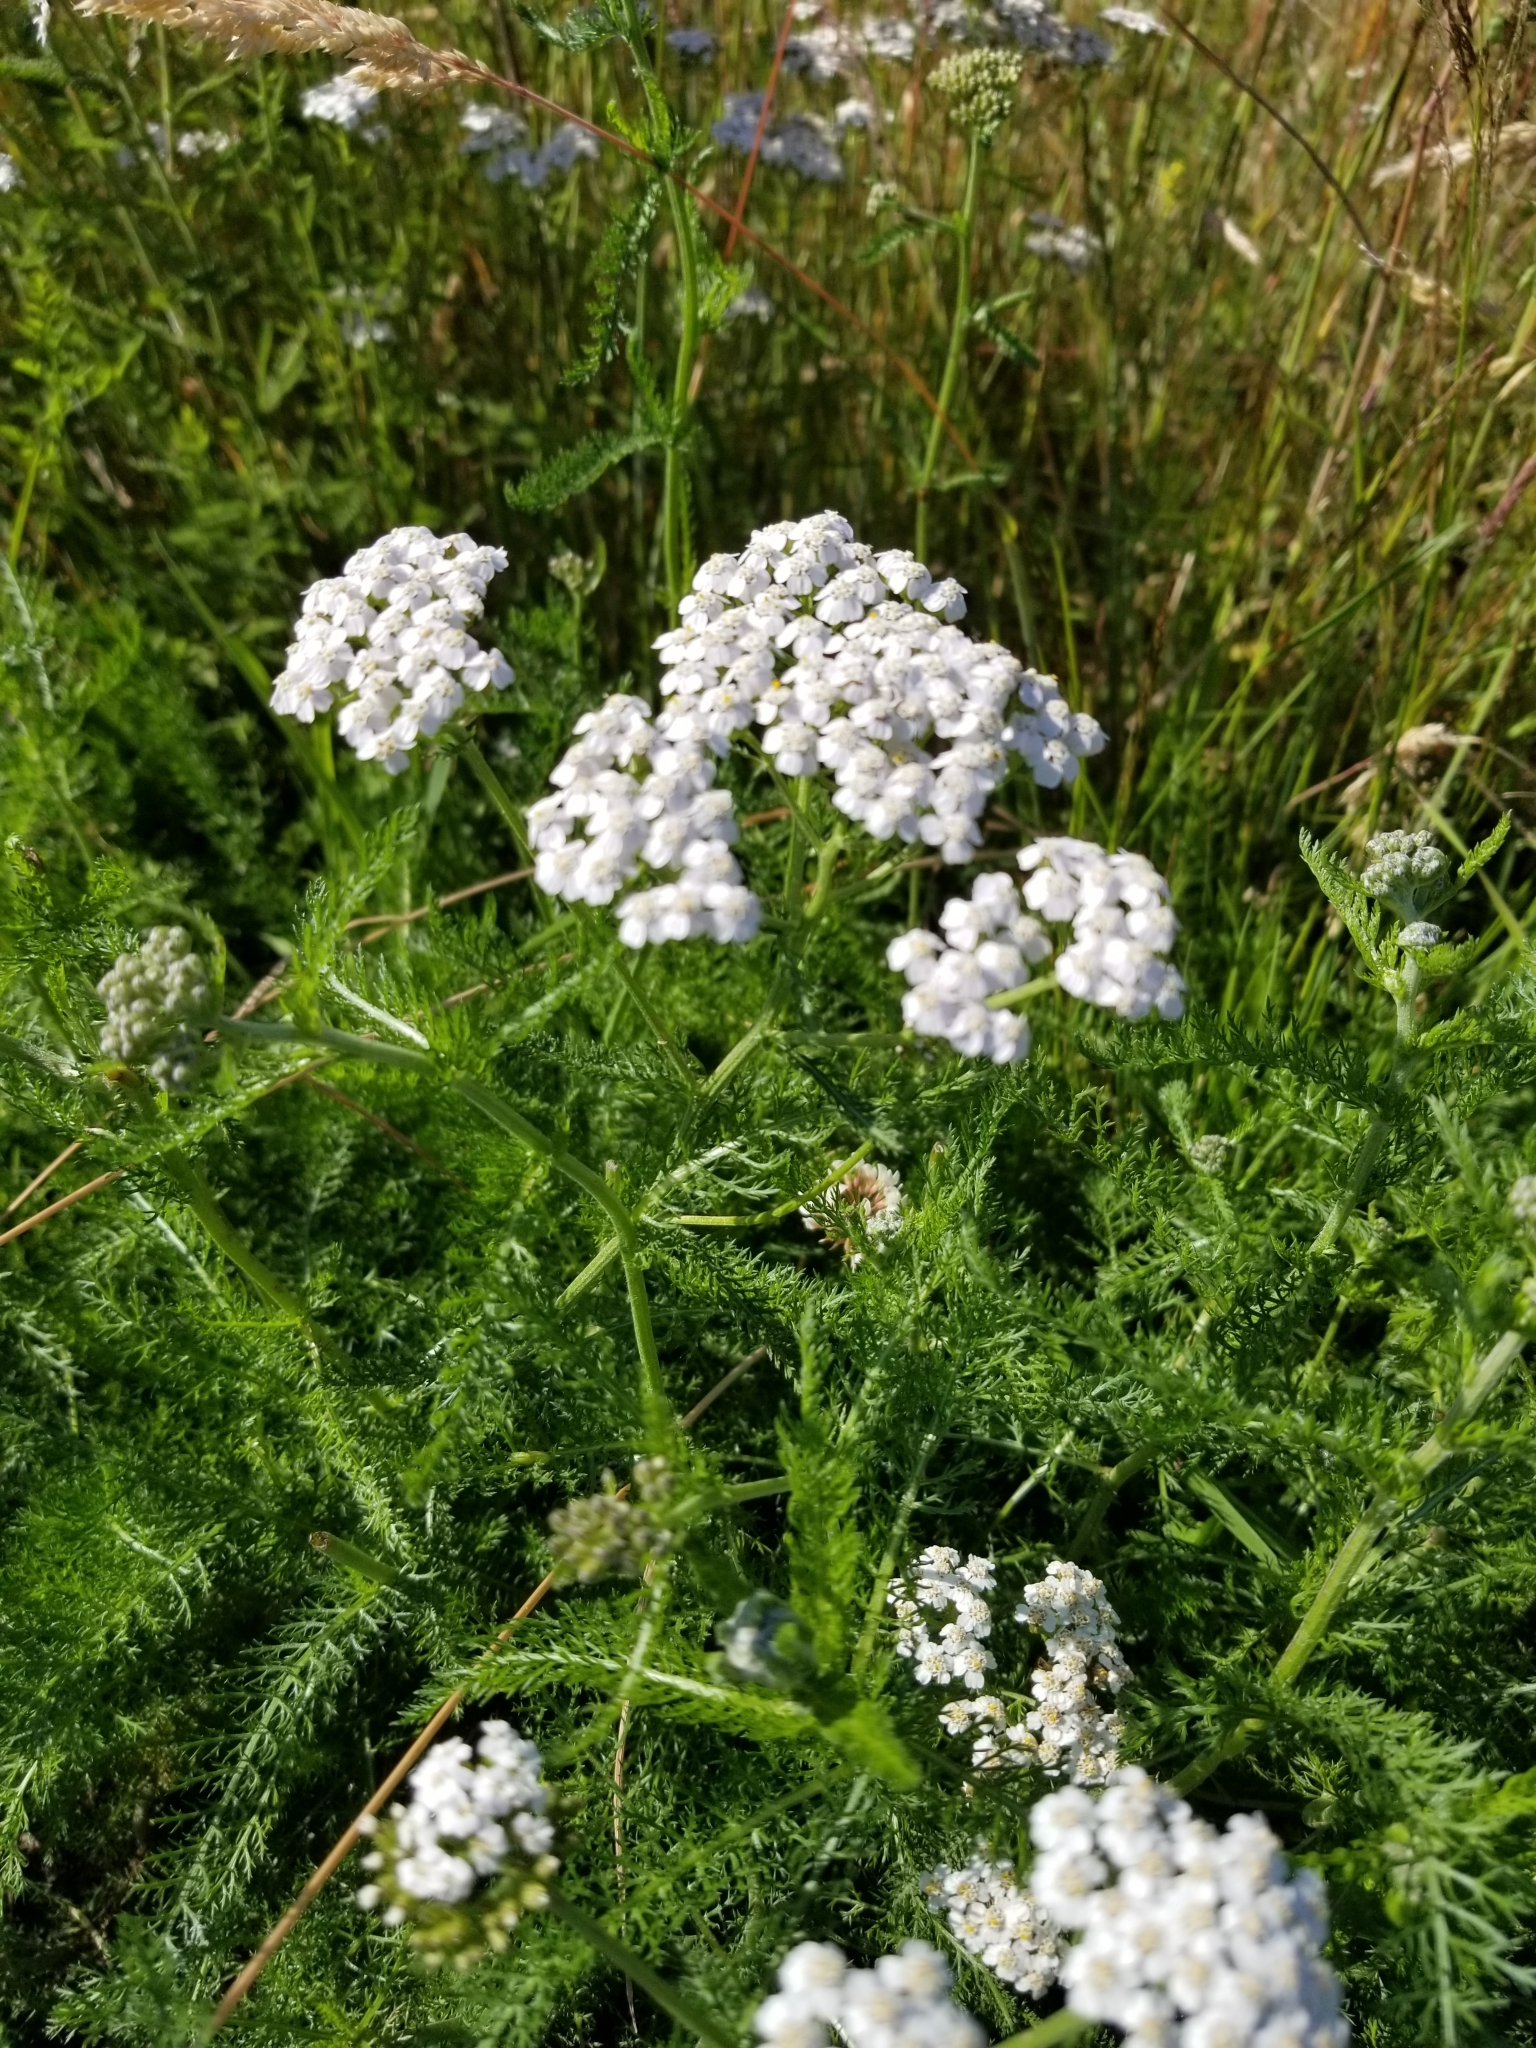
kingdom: Plantae
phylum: Tracheophyta
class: Magnoliopsida
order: Asterales
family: Asteraceae
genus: Achillea
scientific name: Achillea millefolium
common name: Yarrow
